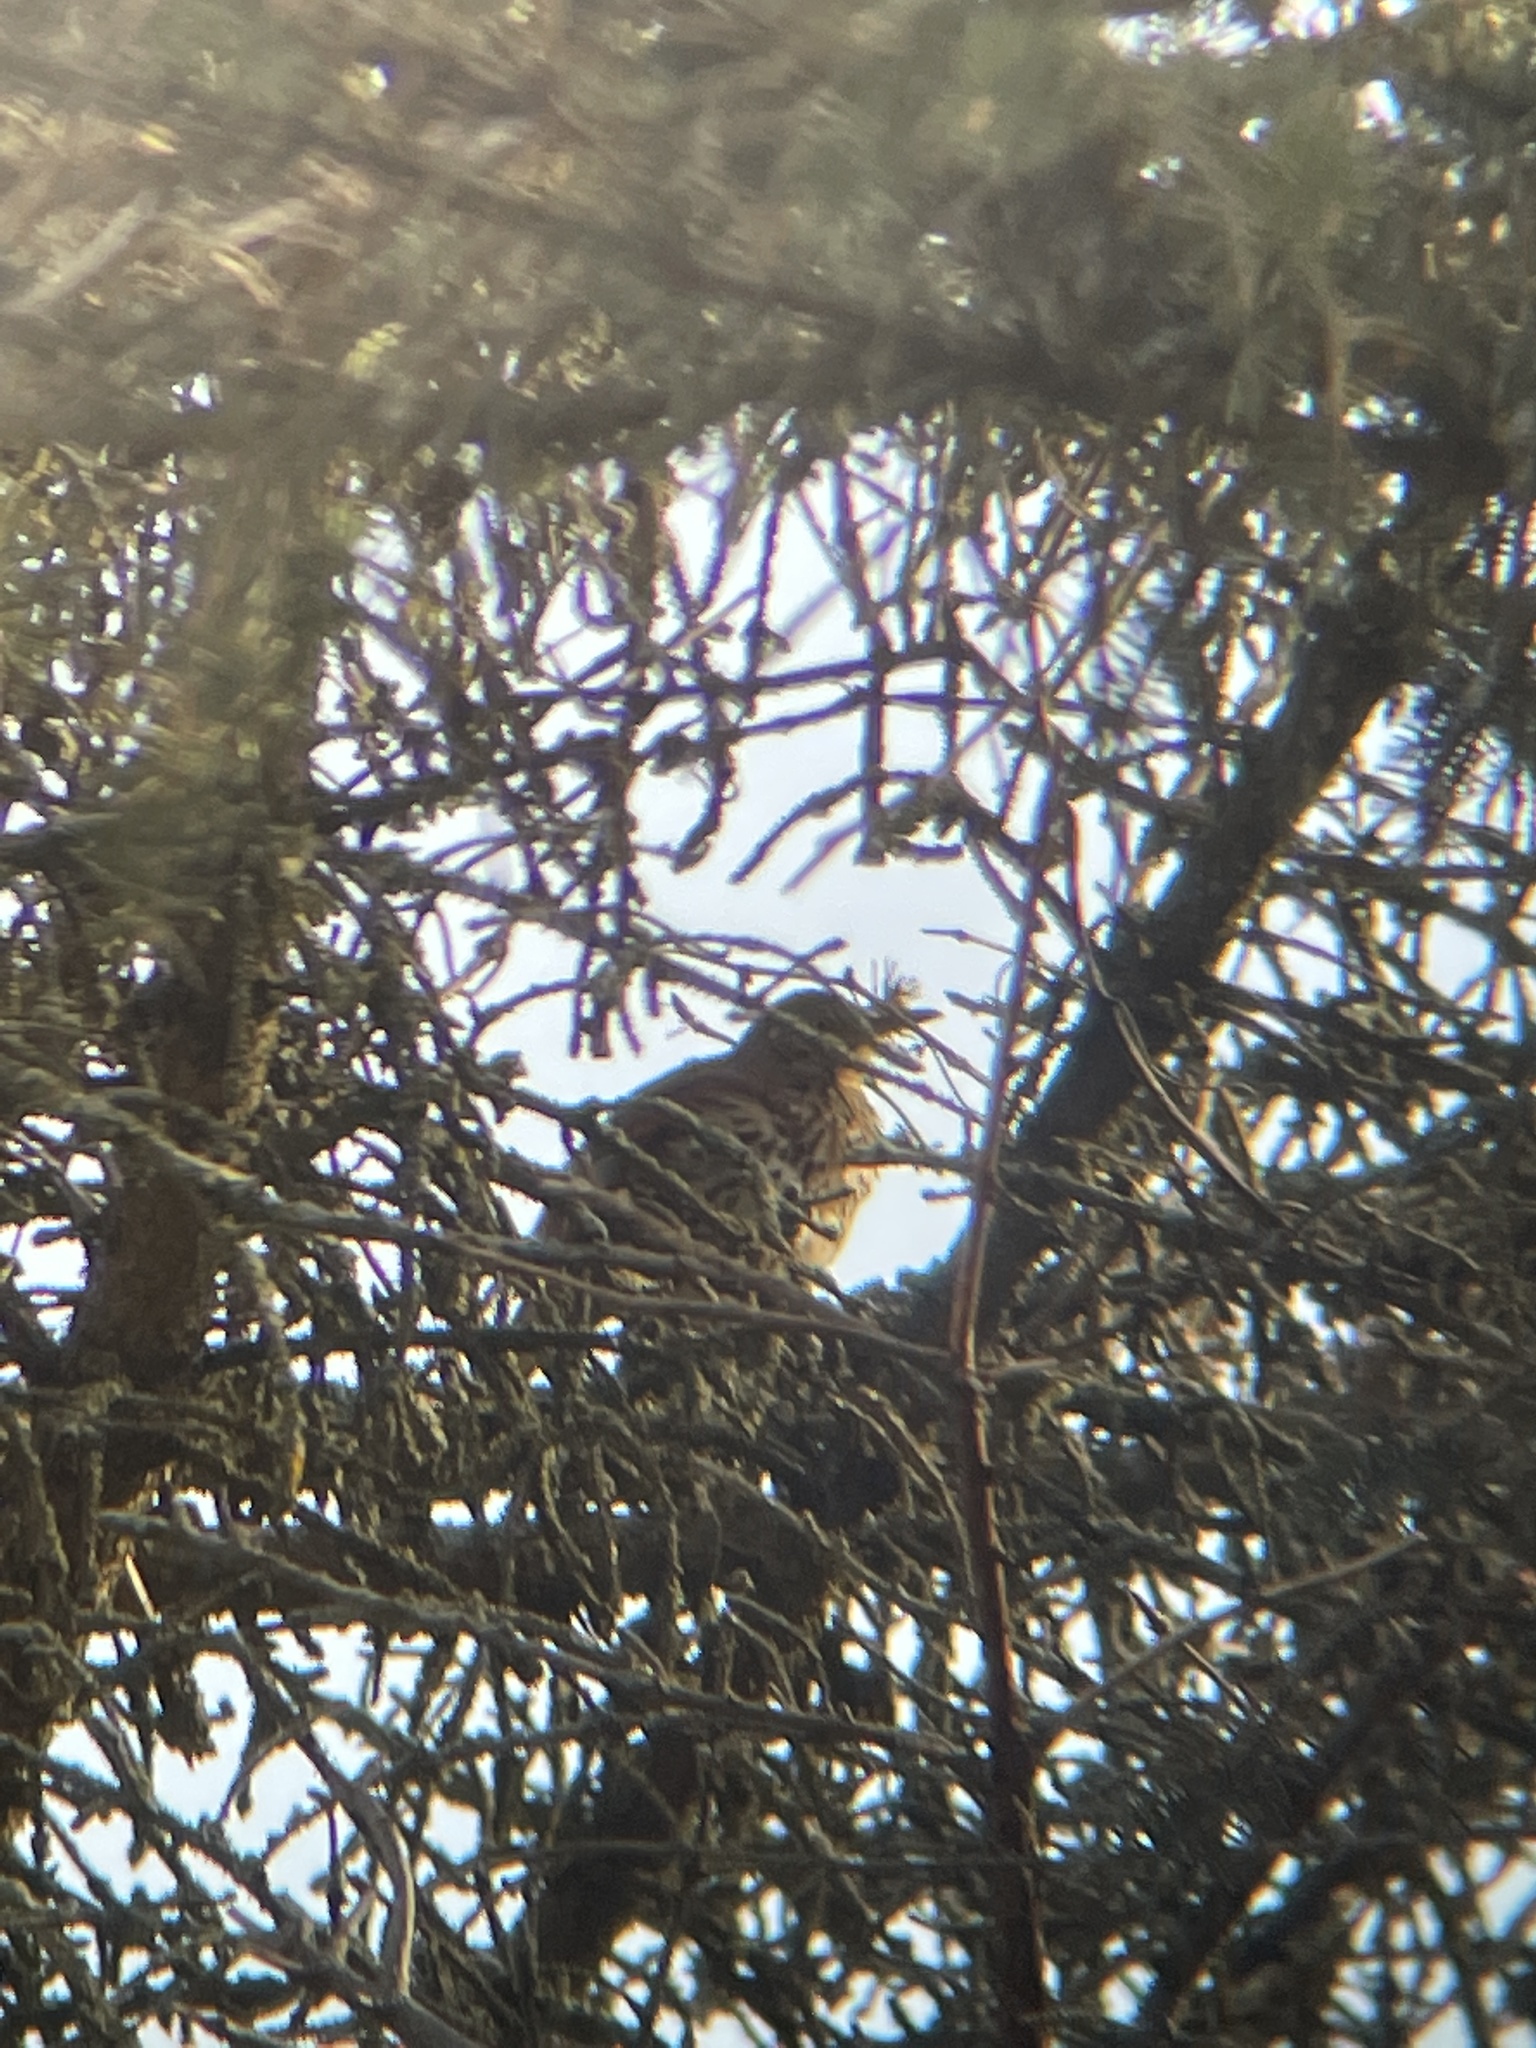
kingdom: Animalia
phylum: Chordata
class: Aves
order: Passeriformes
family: Mimidae
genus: Toxostoma
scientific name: Toxostoma rufum
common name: Brown thrasher
